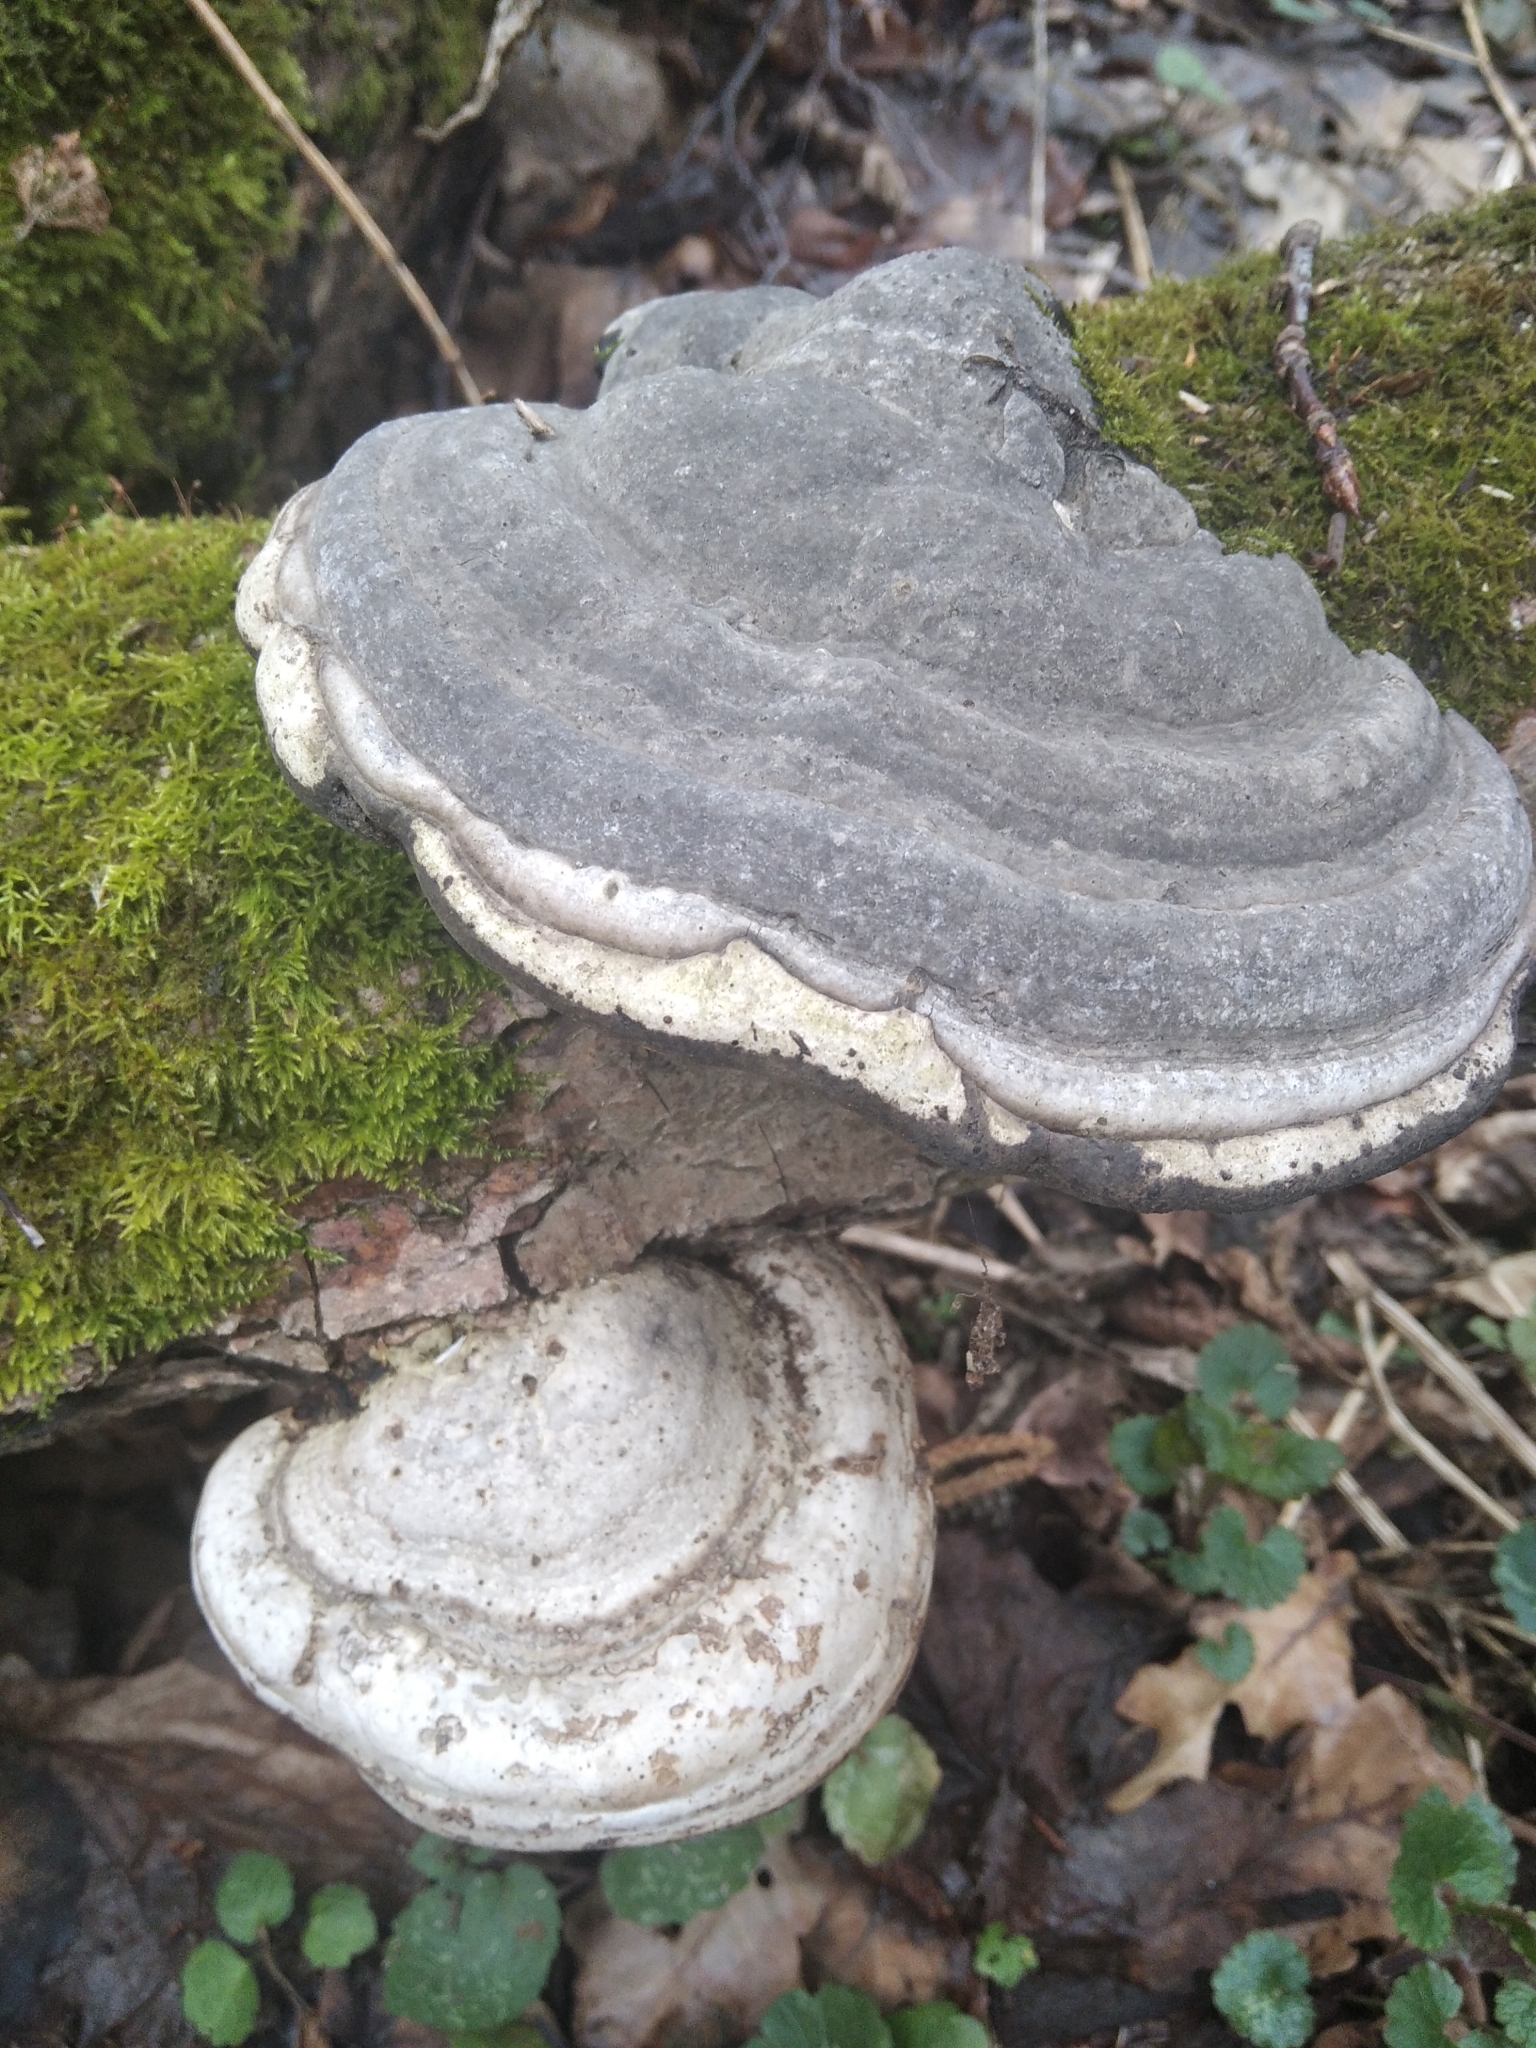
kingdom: Fungi
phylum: Basidiomycota
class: Agaricomycetes
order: Polyporales
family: Polyporaceae
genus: Fomes
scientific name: Fomes fomentarius
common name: Hoof fungus
